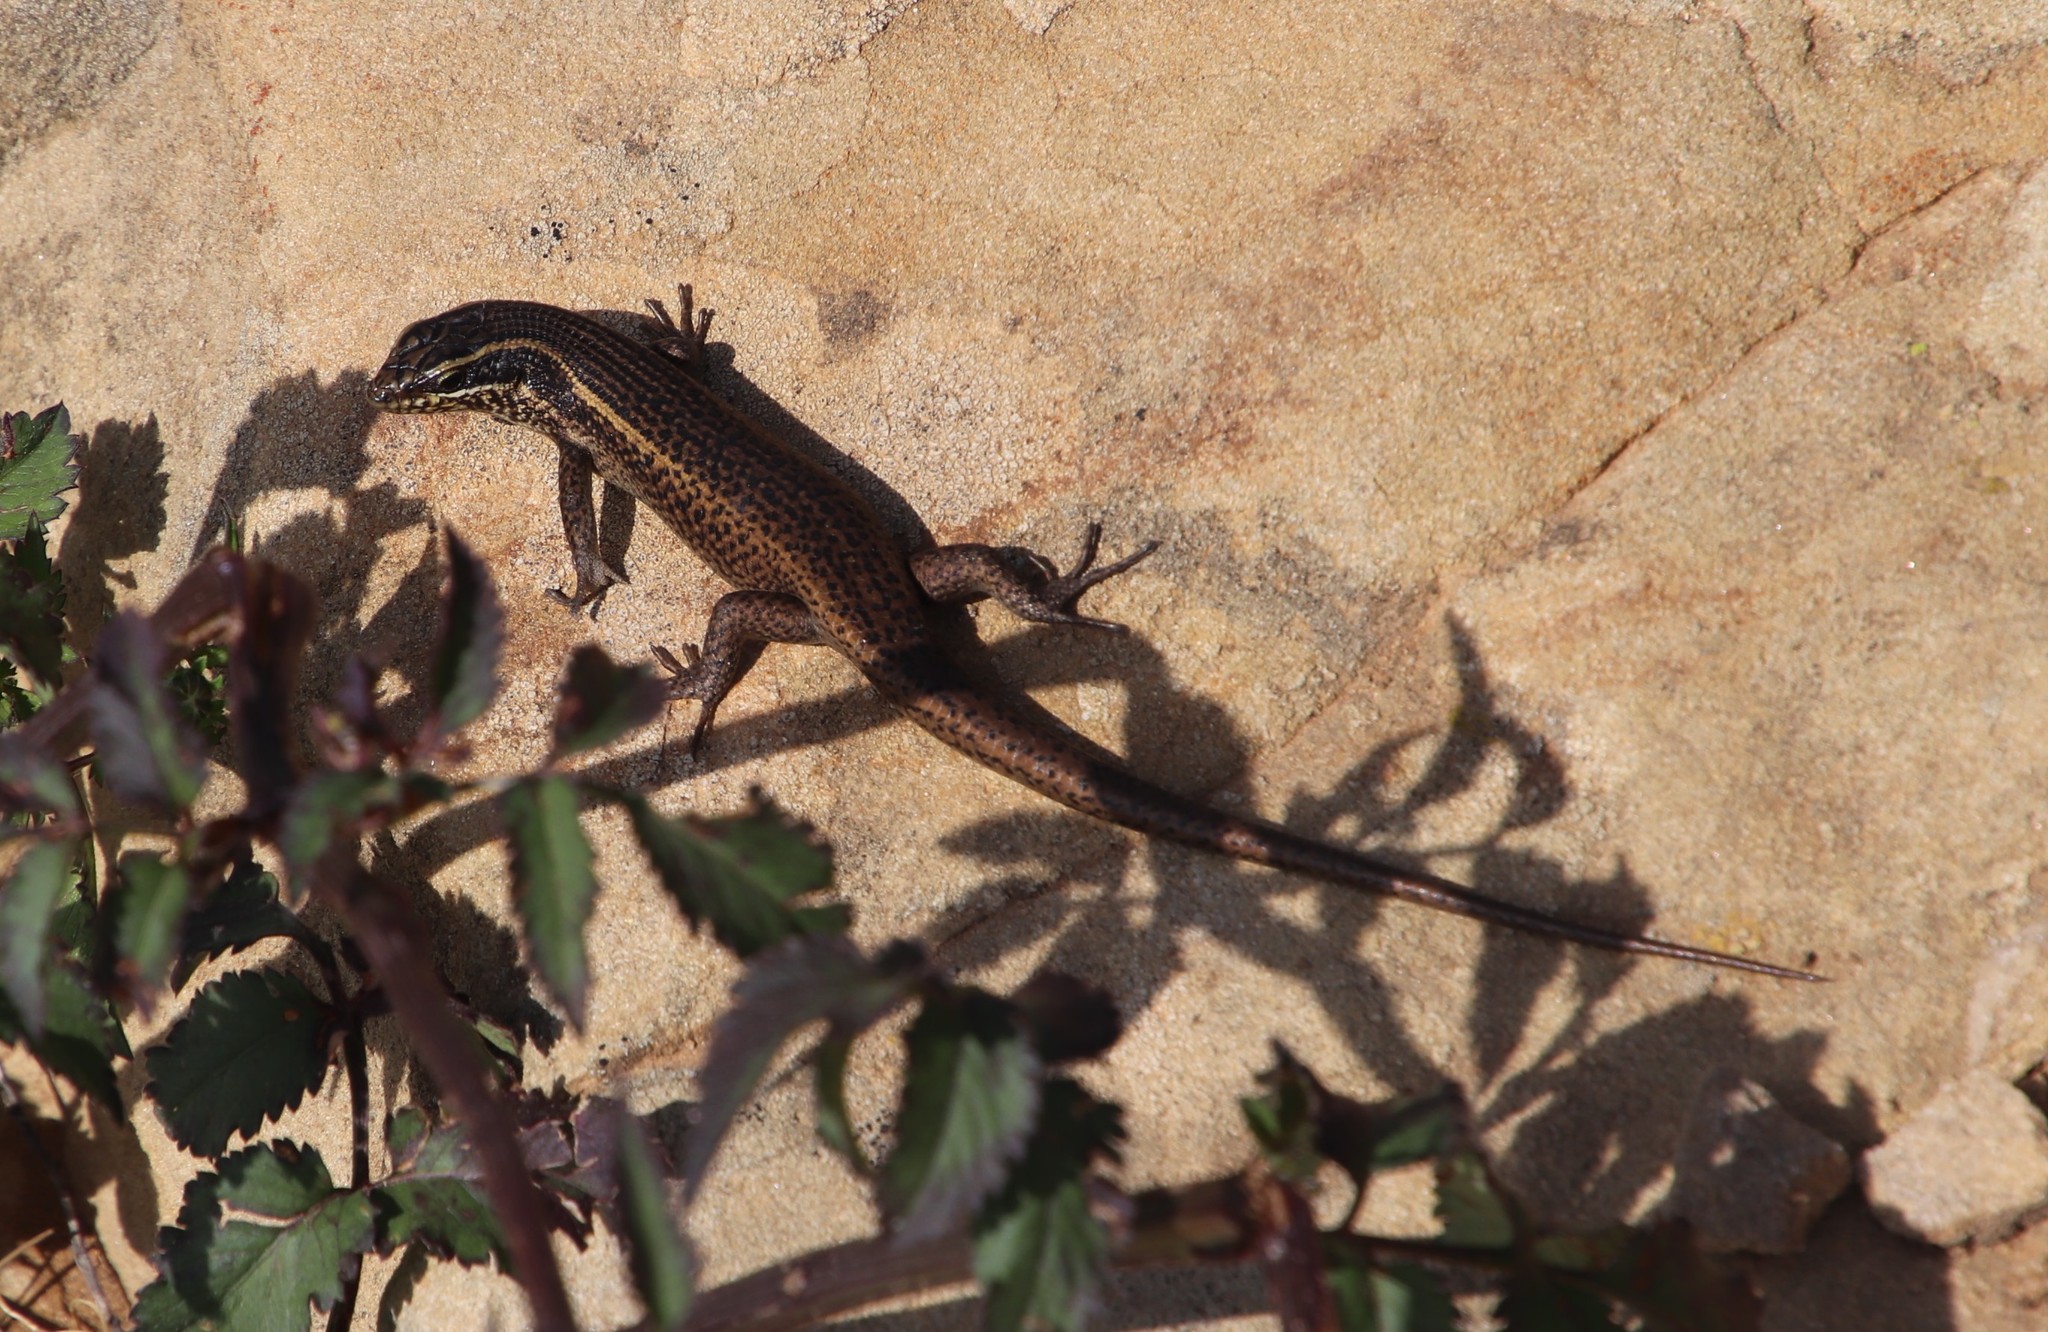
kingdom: Plantae
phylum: Tracheophyta
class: Magnoliopsida
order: Asterales
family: Asteraceae
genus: Bidens
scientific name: Bidens pilosa
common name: Black-jack
